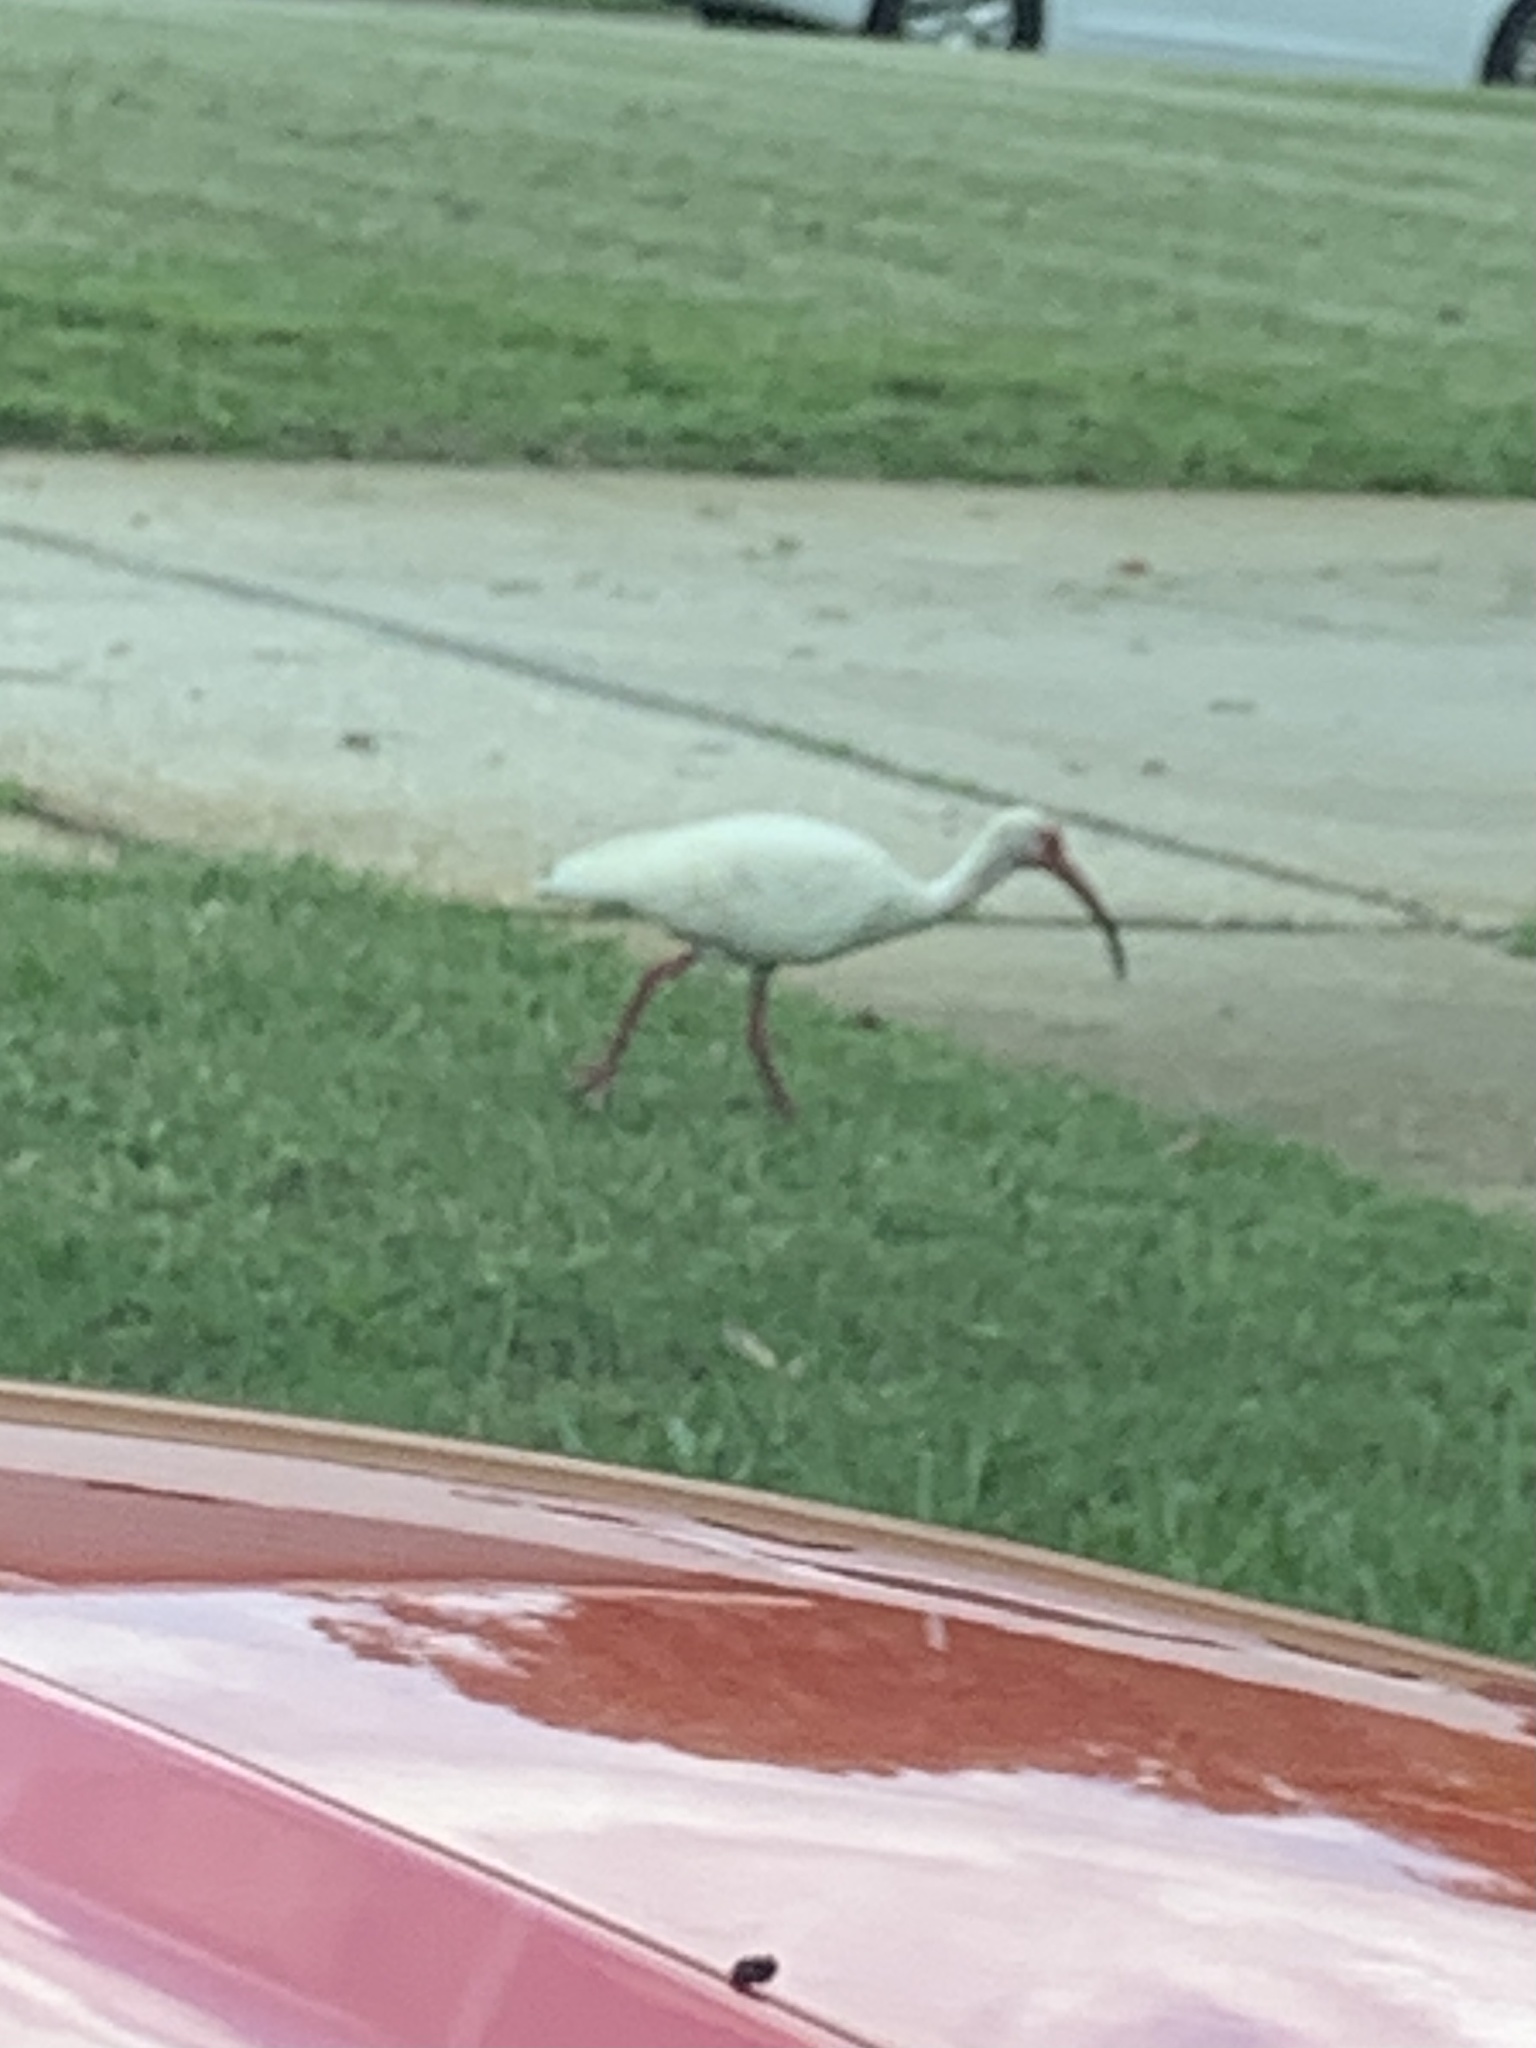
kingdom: Animalia
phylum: Chordata
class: Aves
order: Pelecaniformes
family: Threskiornithidae
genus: Eudocimus
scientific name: Eudocimus albus
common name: White ibis
